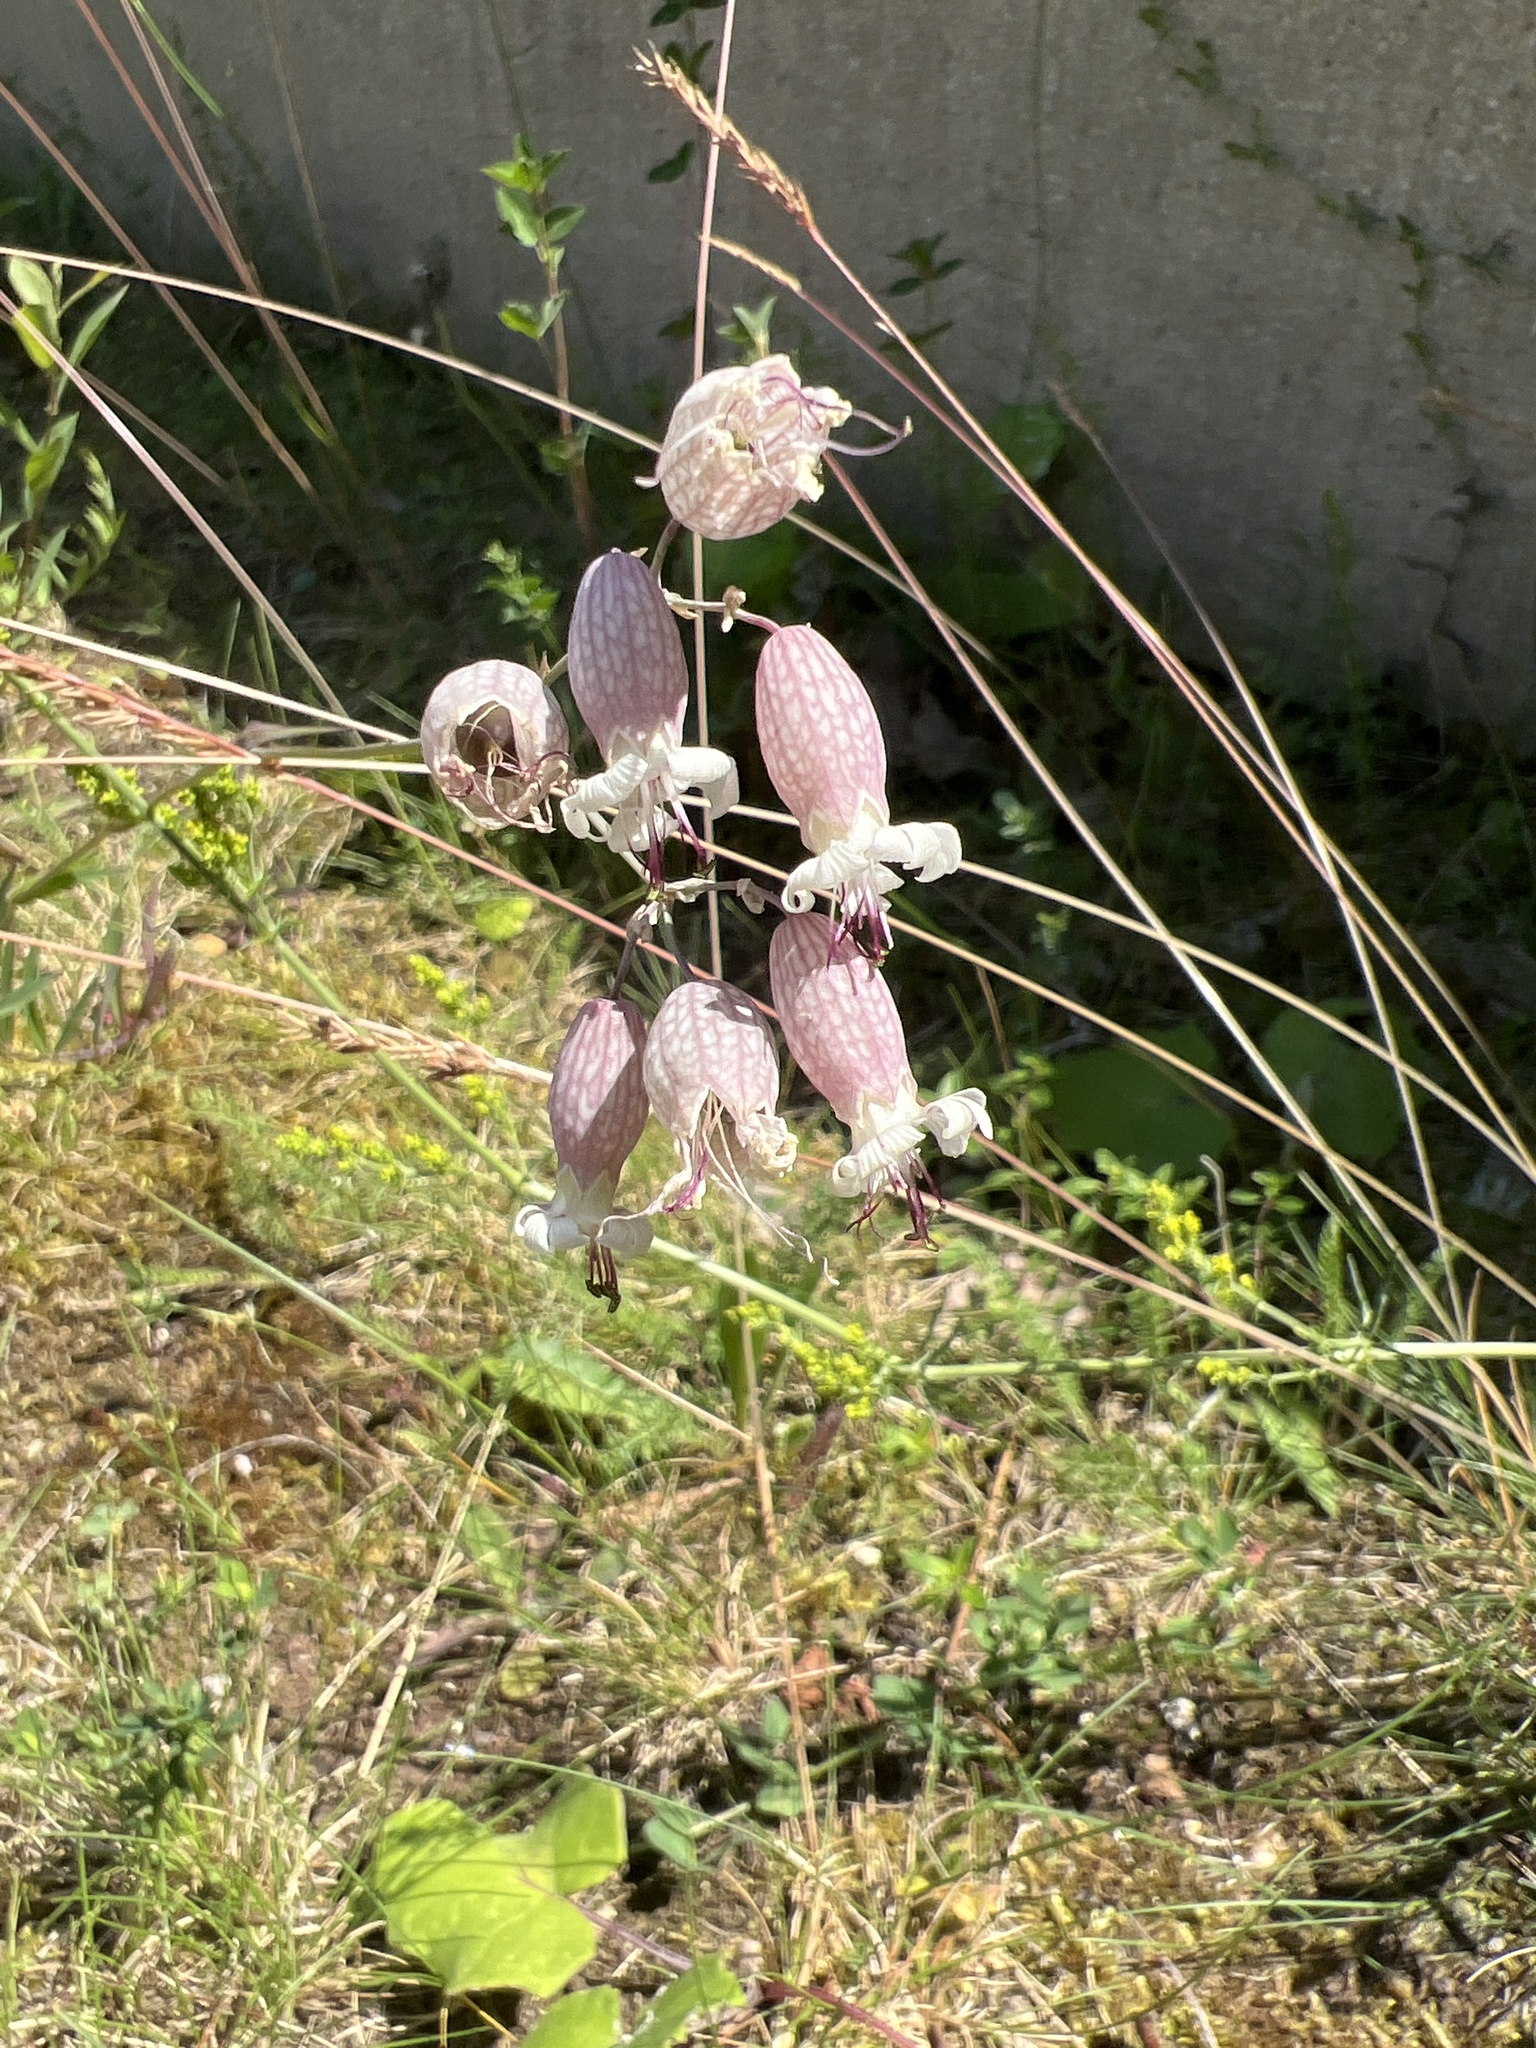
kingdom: Plantae
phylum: Tracheophyta
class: Magnoliopsida
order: Caryophyllales
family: Caryophyllaceae
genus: Silene
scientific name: Silene vulgaris
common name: Bladder campion
